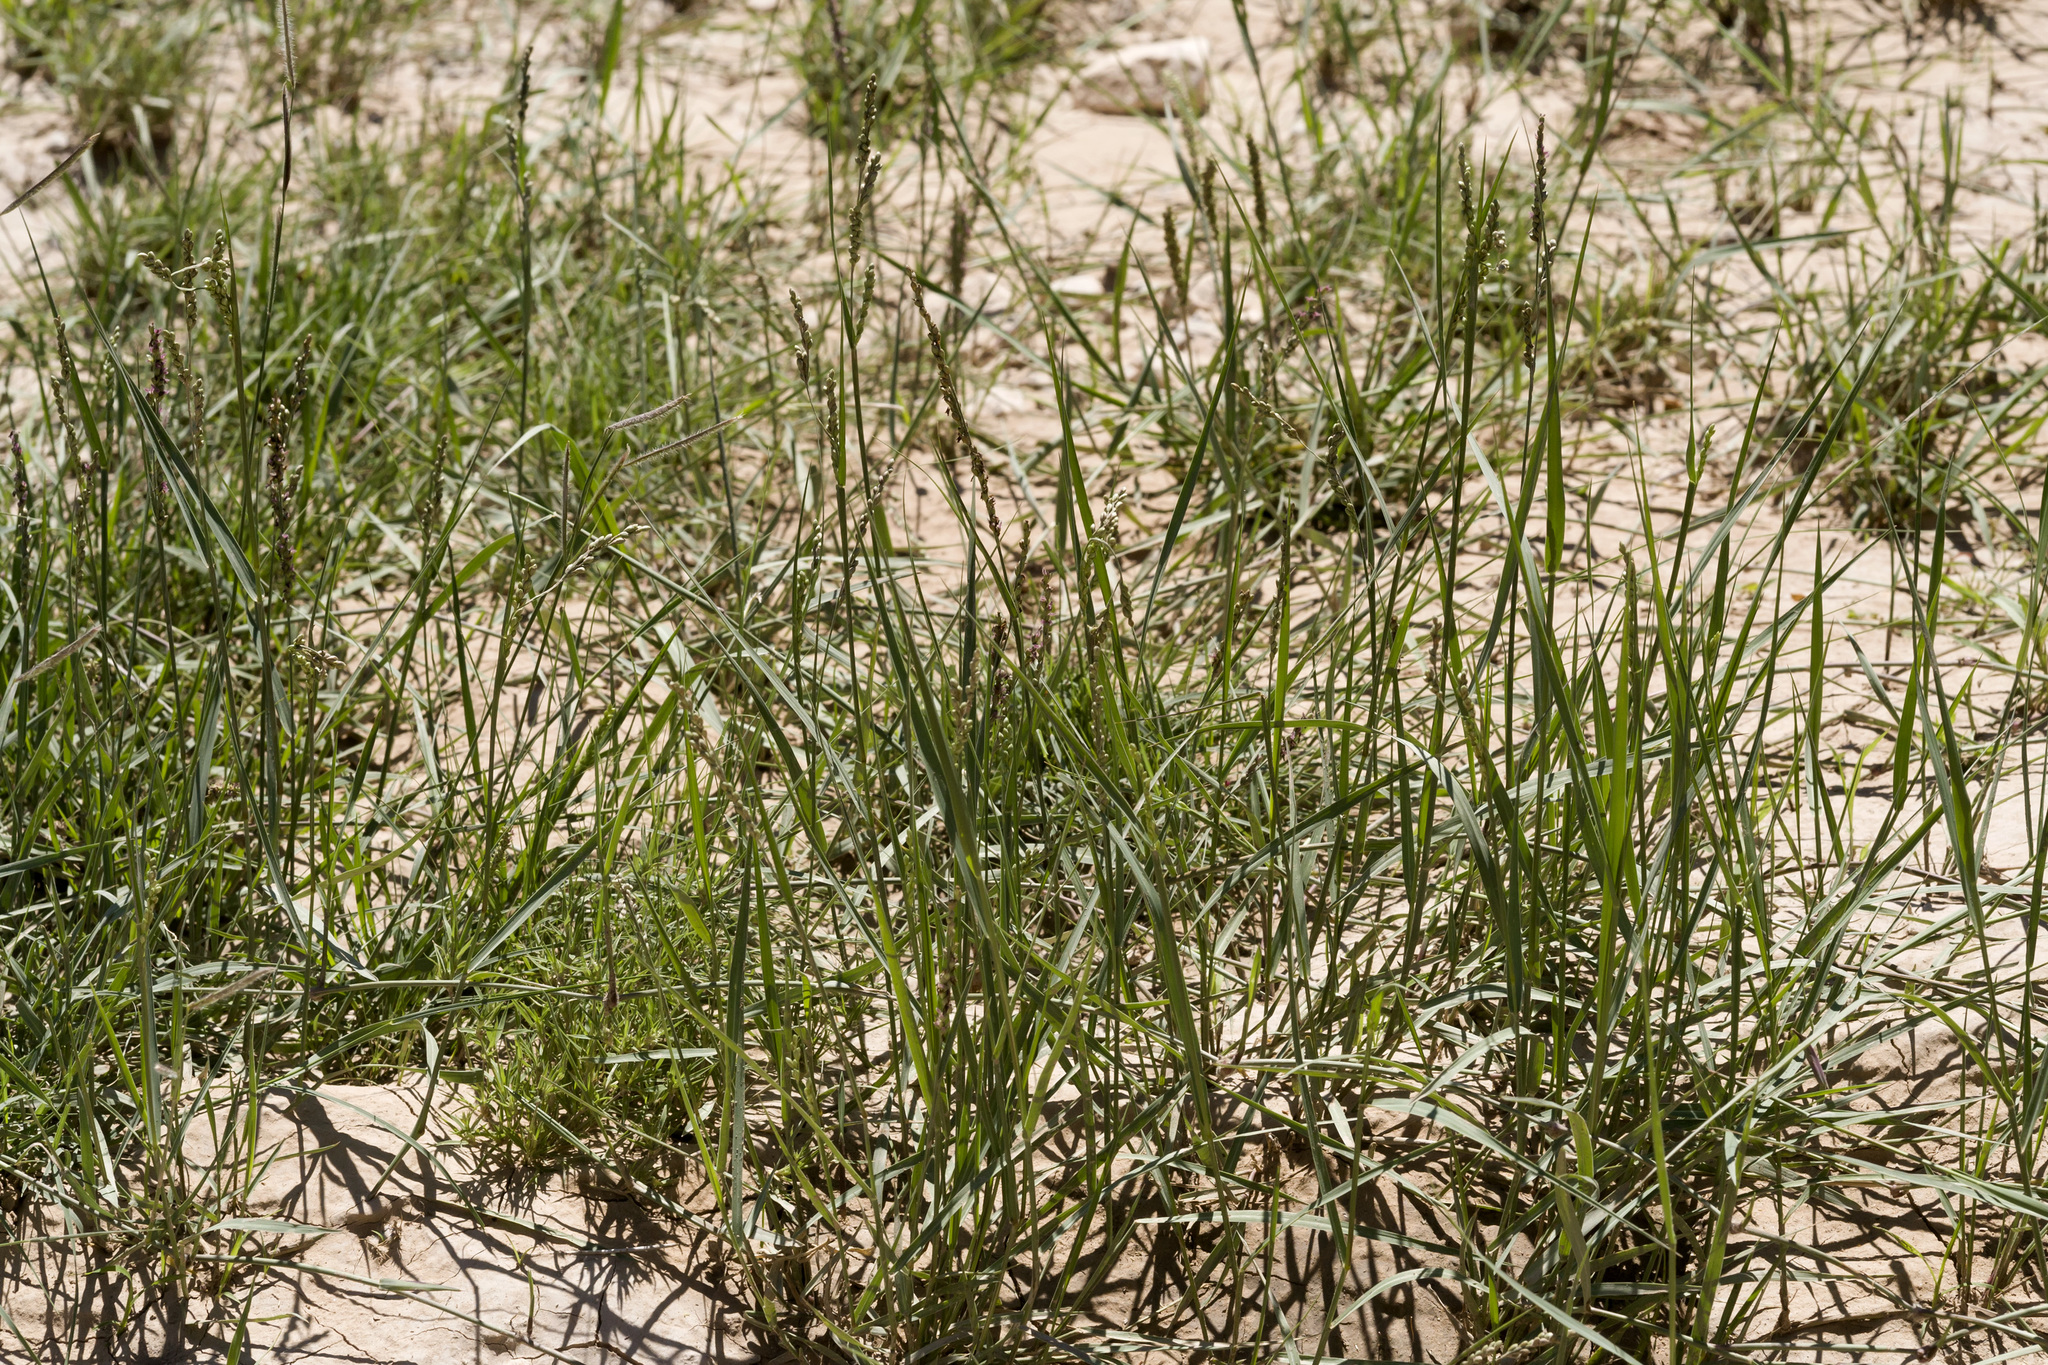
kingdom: Plantae
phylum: Tracheophyta
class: Liliopsida
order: Poales
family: Poaceae
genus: Hopia
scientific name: Hopia obtusa
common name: Vine-mesquite
